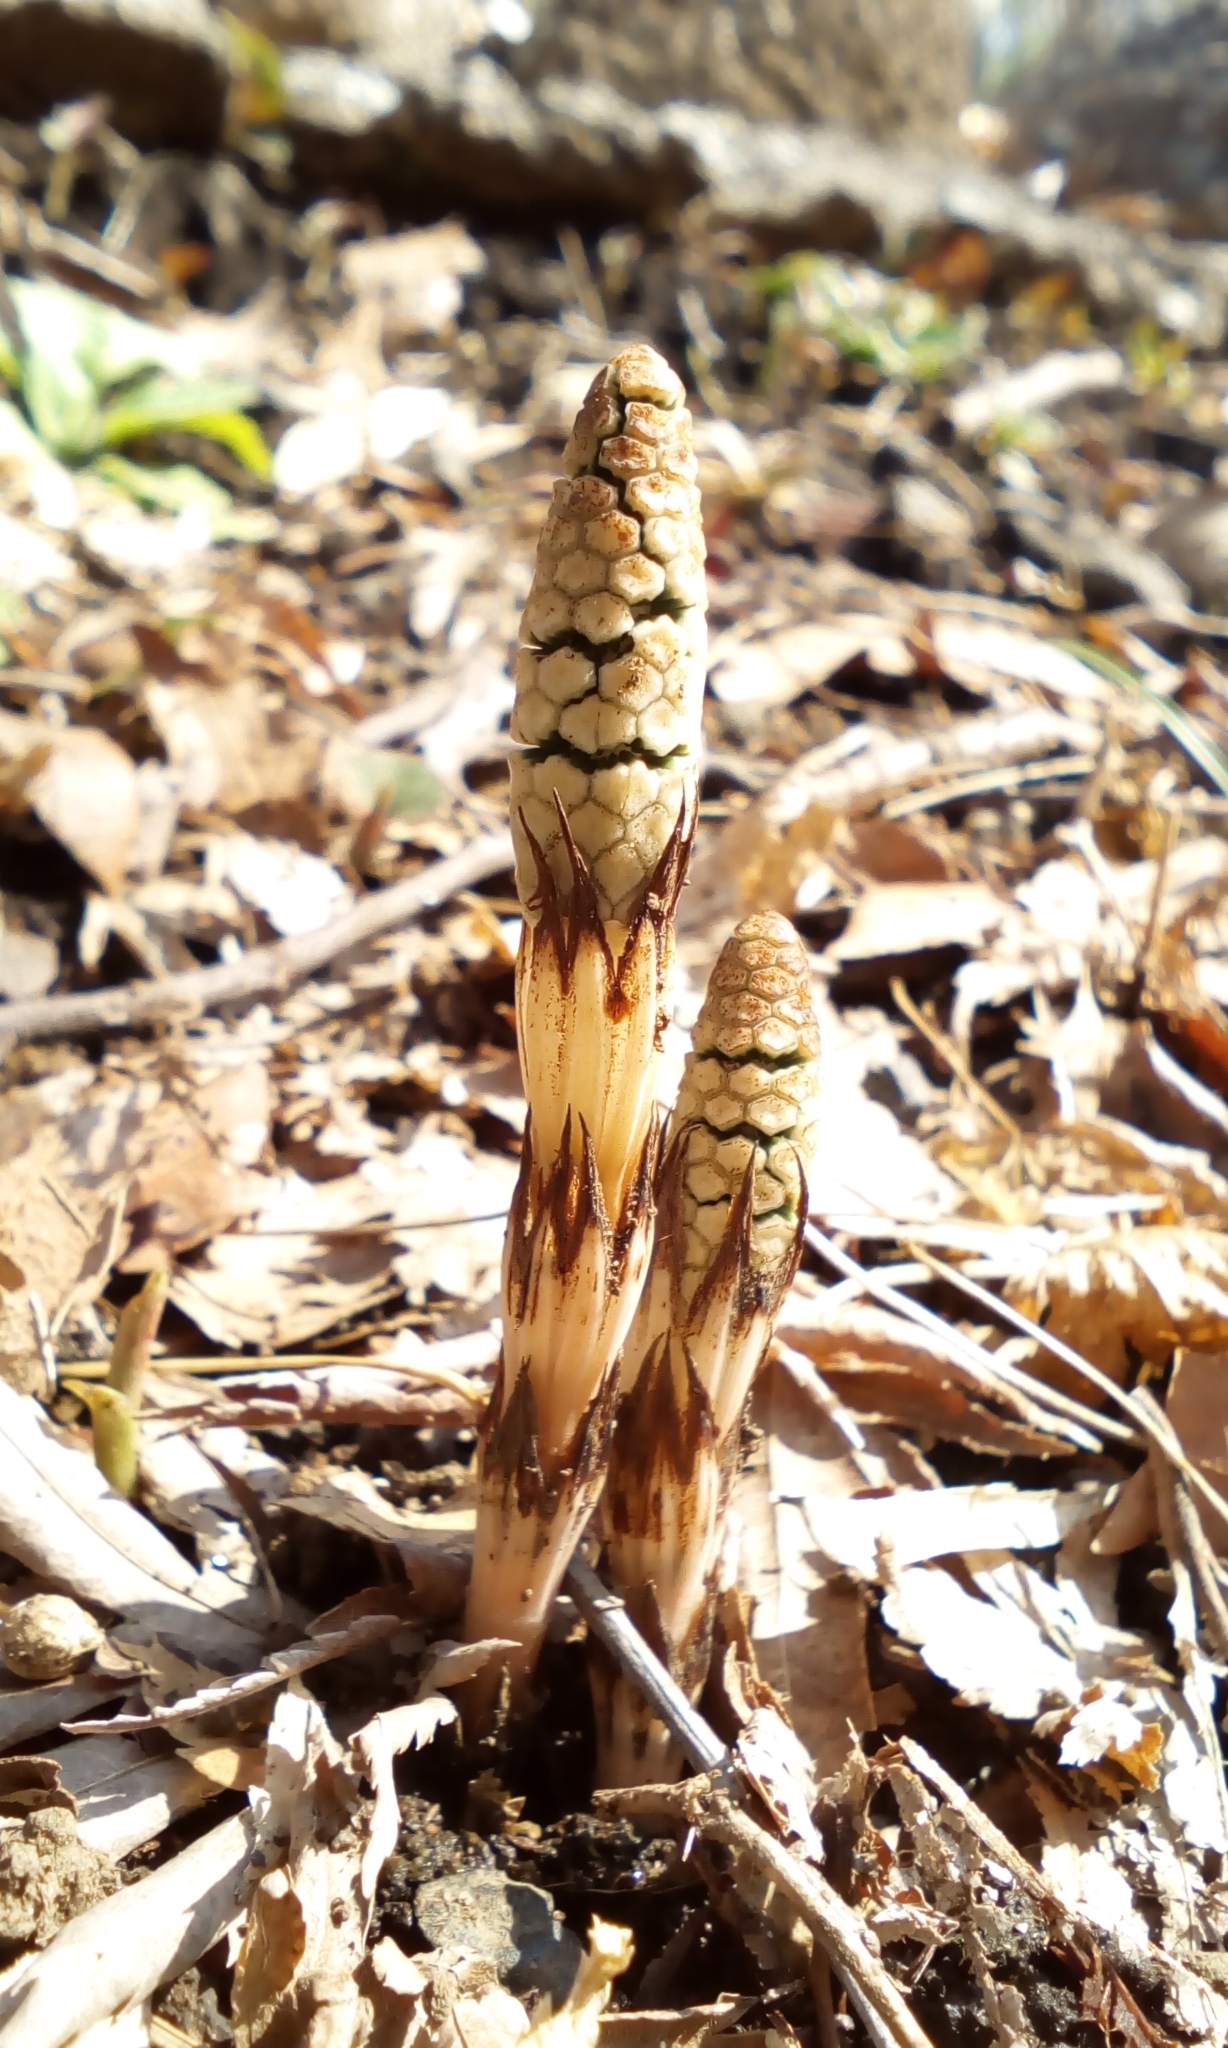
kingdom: Plantae
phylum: Tracheophyta
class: Polypodiopsida
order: Equisetales
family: Equisetaceae
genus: Equisetum
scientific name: Equisetum arvense
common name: Field horsetail
